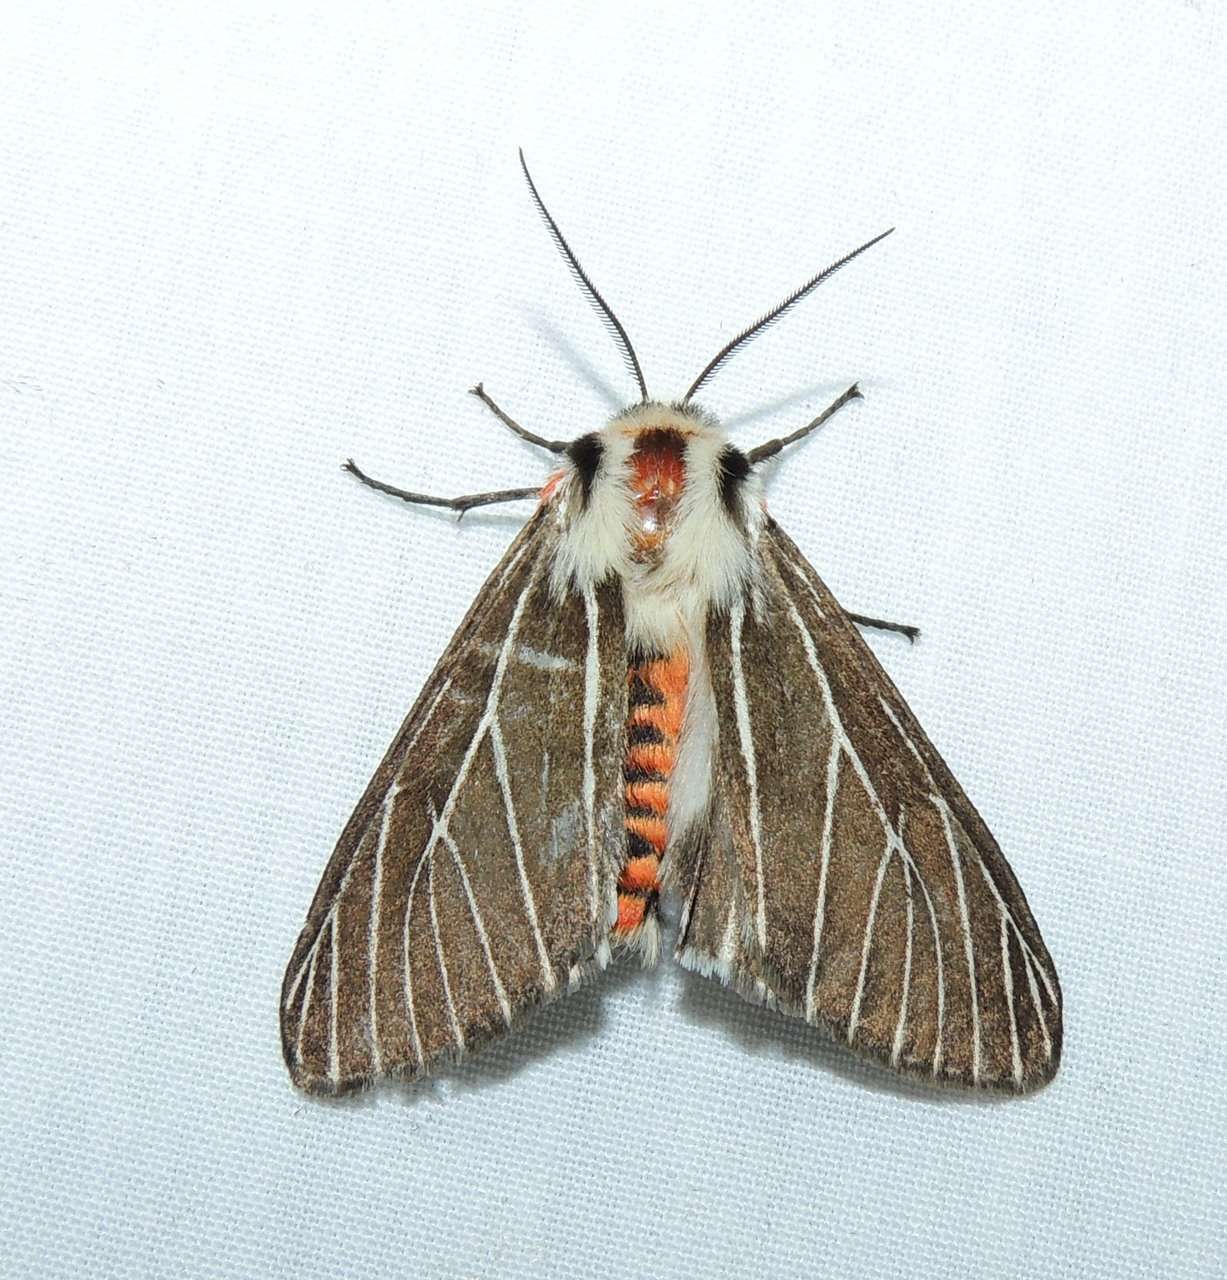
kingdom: Animalia
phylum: Arthropoda
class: Insecta
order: Lepidoptera
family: Erebidae
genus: Ardices
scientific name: Ardices glatignyi
